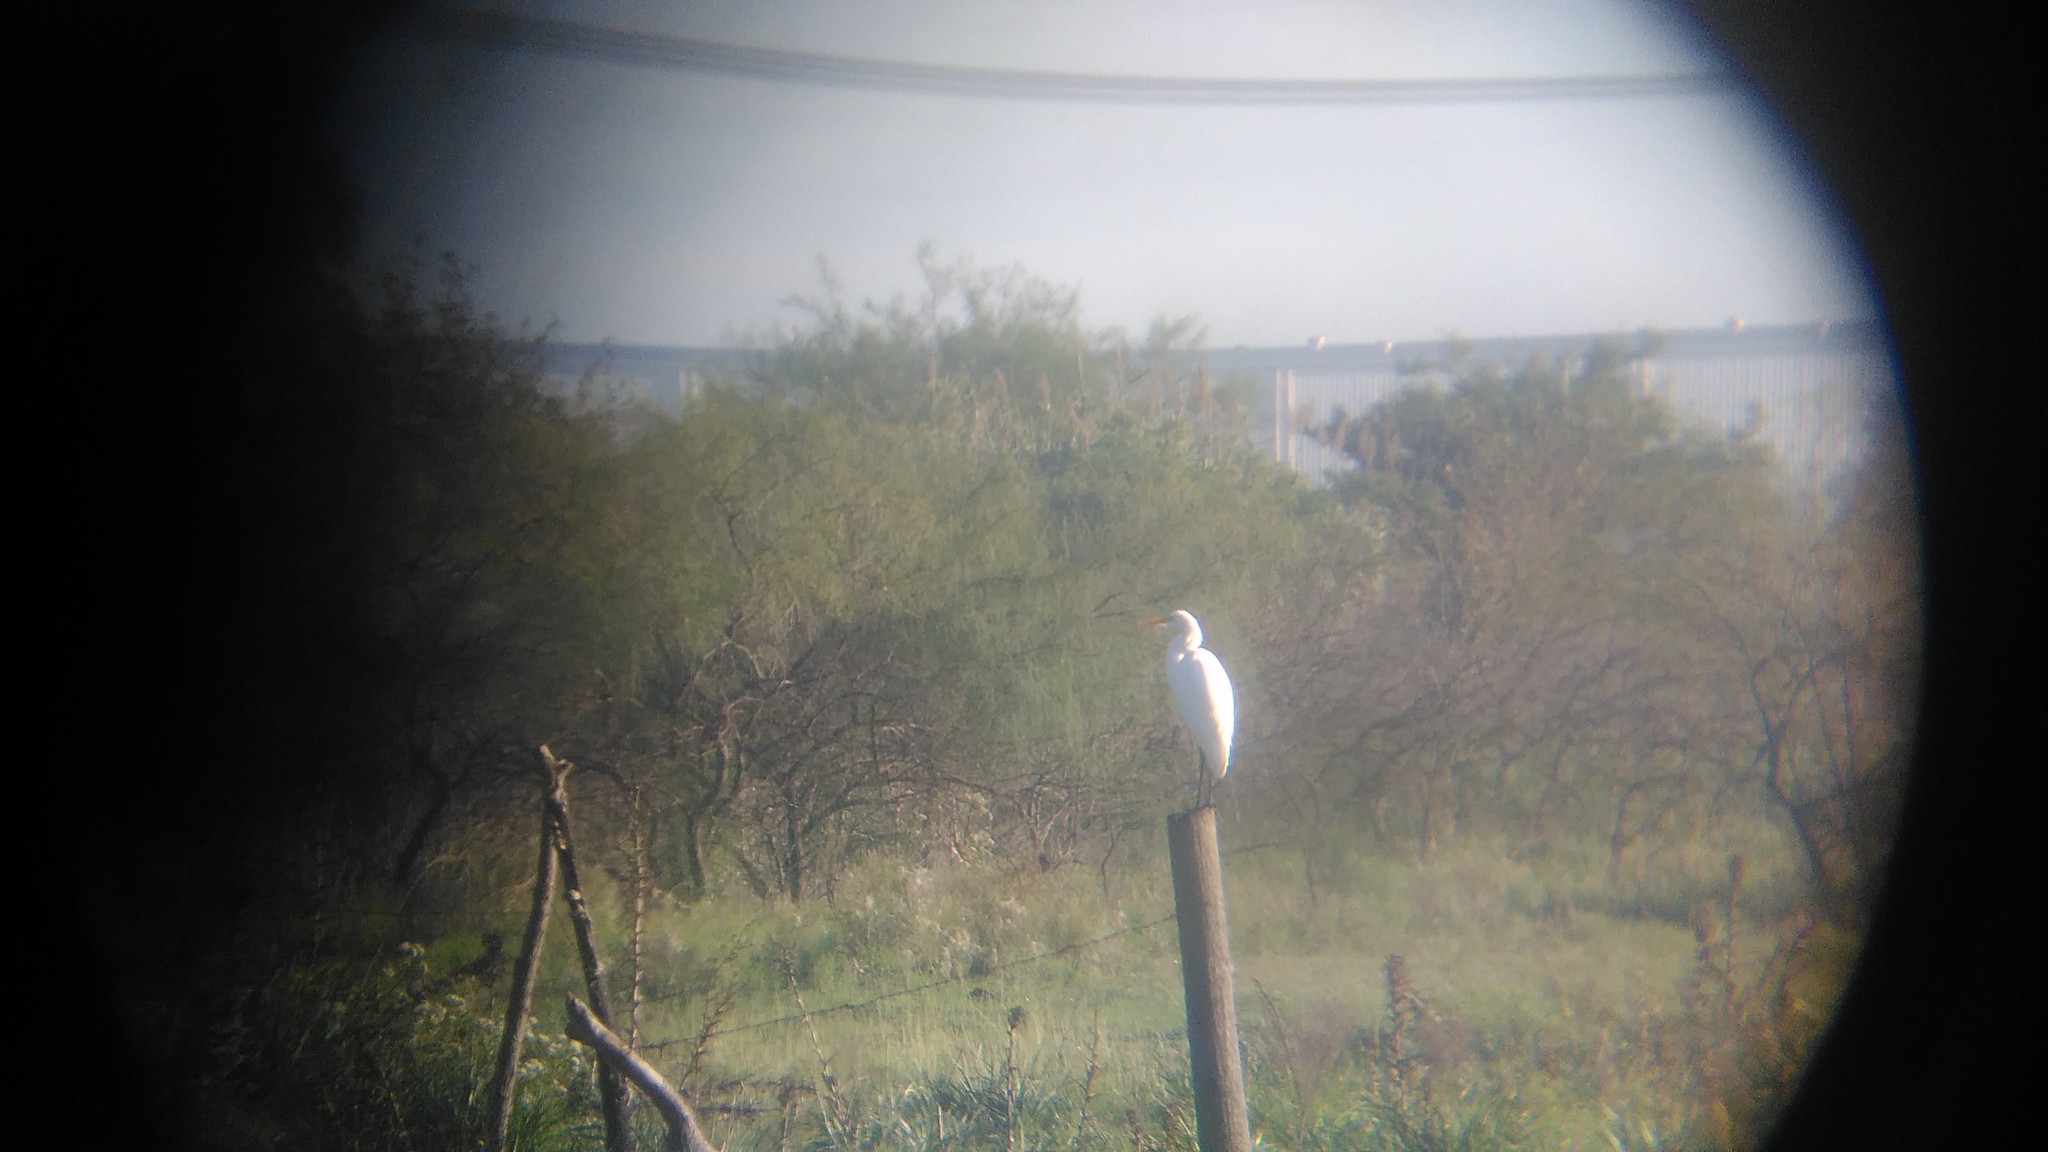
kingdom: Animalia
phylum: Chordata
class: Aves
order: Pelecaniformes
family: Ardeidae
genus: Ardea
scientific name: Ardea alba
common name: Great egret
